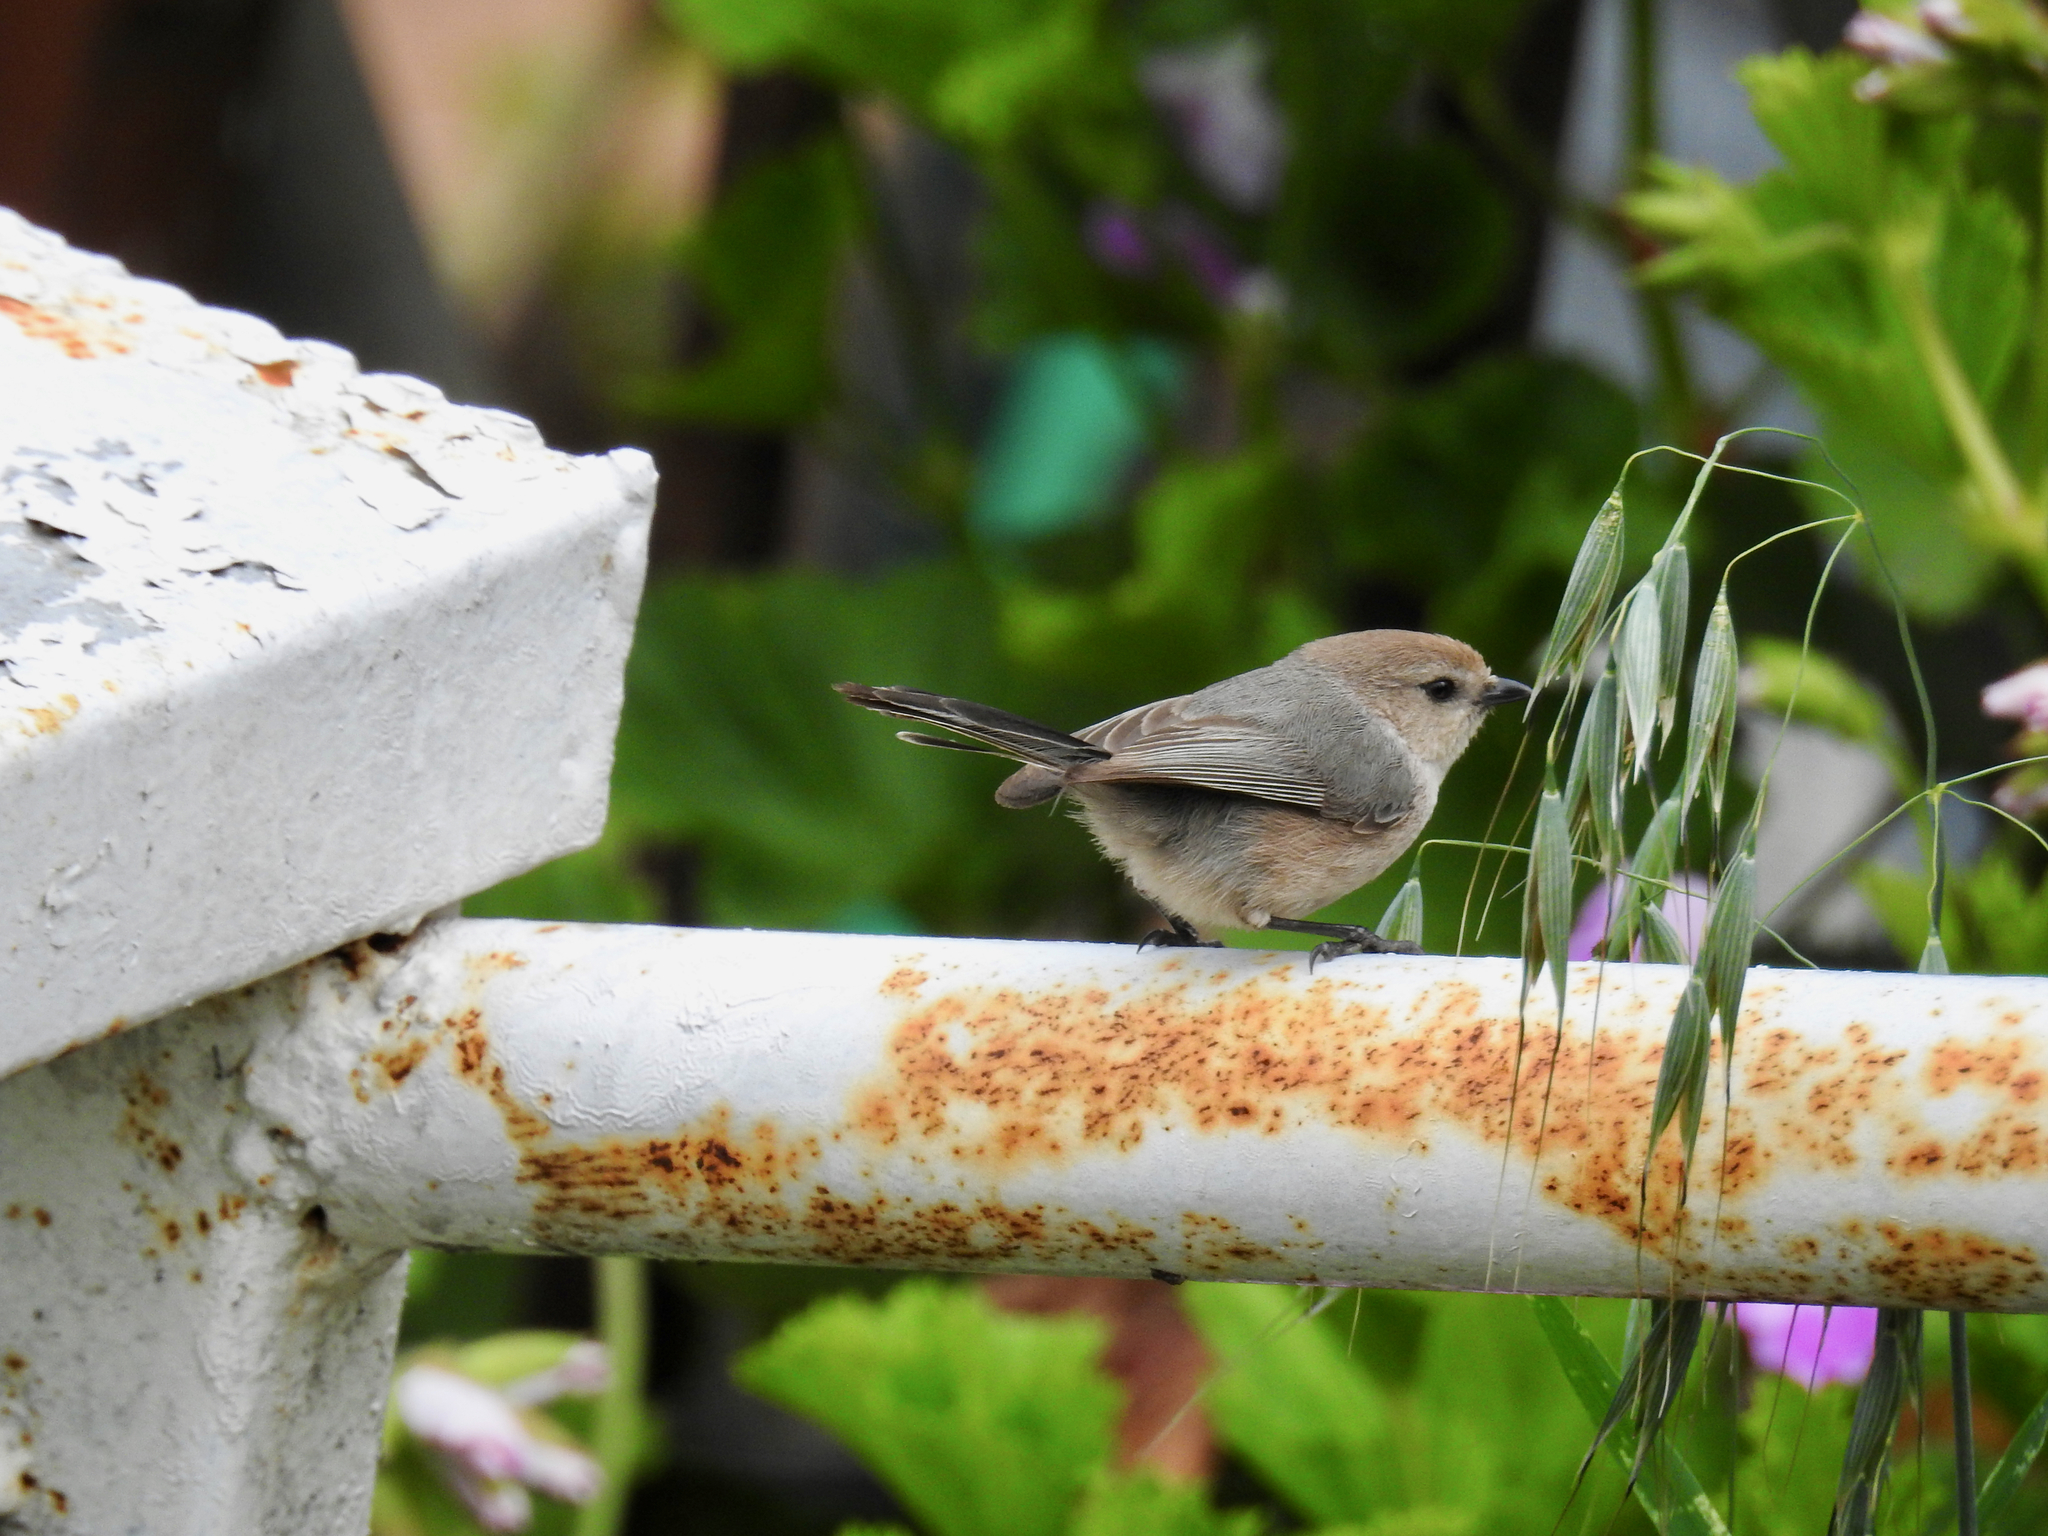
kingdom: Animalia
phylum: Chordata
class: Aves
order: Passeriformes
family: Aegithalidae
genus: Psaltriparus
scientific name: Psaltriparus minimus
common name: American bushtit
